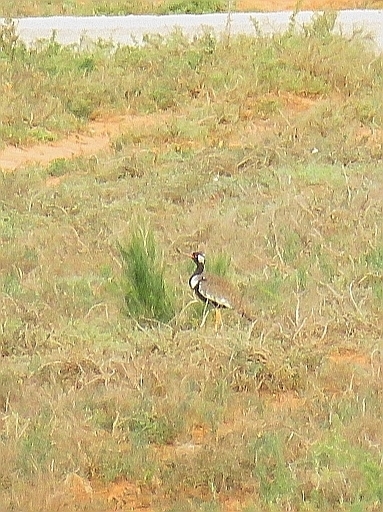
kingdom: Animalia
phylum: Chordata
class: Aves
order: Otidiformes
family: Otididae
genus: Afrotis
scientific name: Afrotis afra
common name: Southern black korhaan
